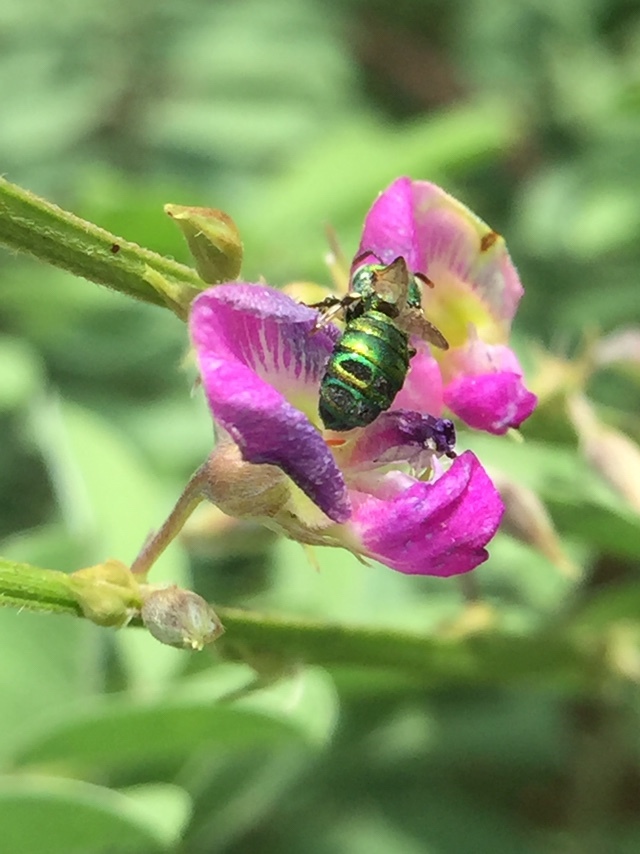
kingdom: Animalia
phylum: Arthropoda
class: Insecta
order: Hymenoptera
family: Apidae
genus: Ceratina
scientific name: Ceratina smaragdula
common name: Small carpenter bee
